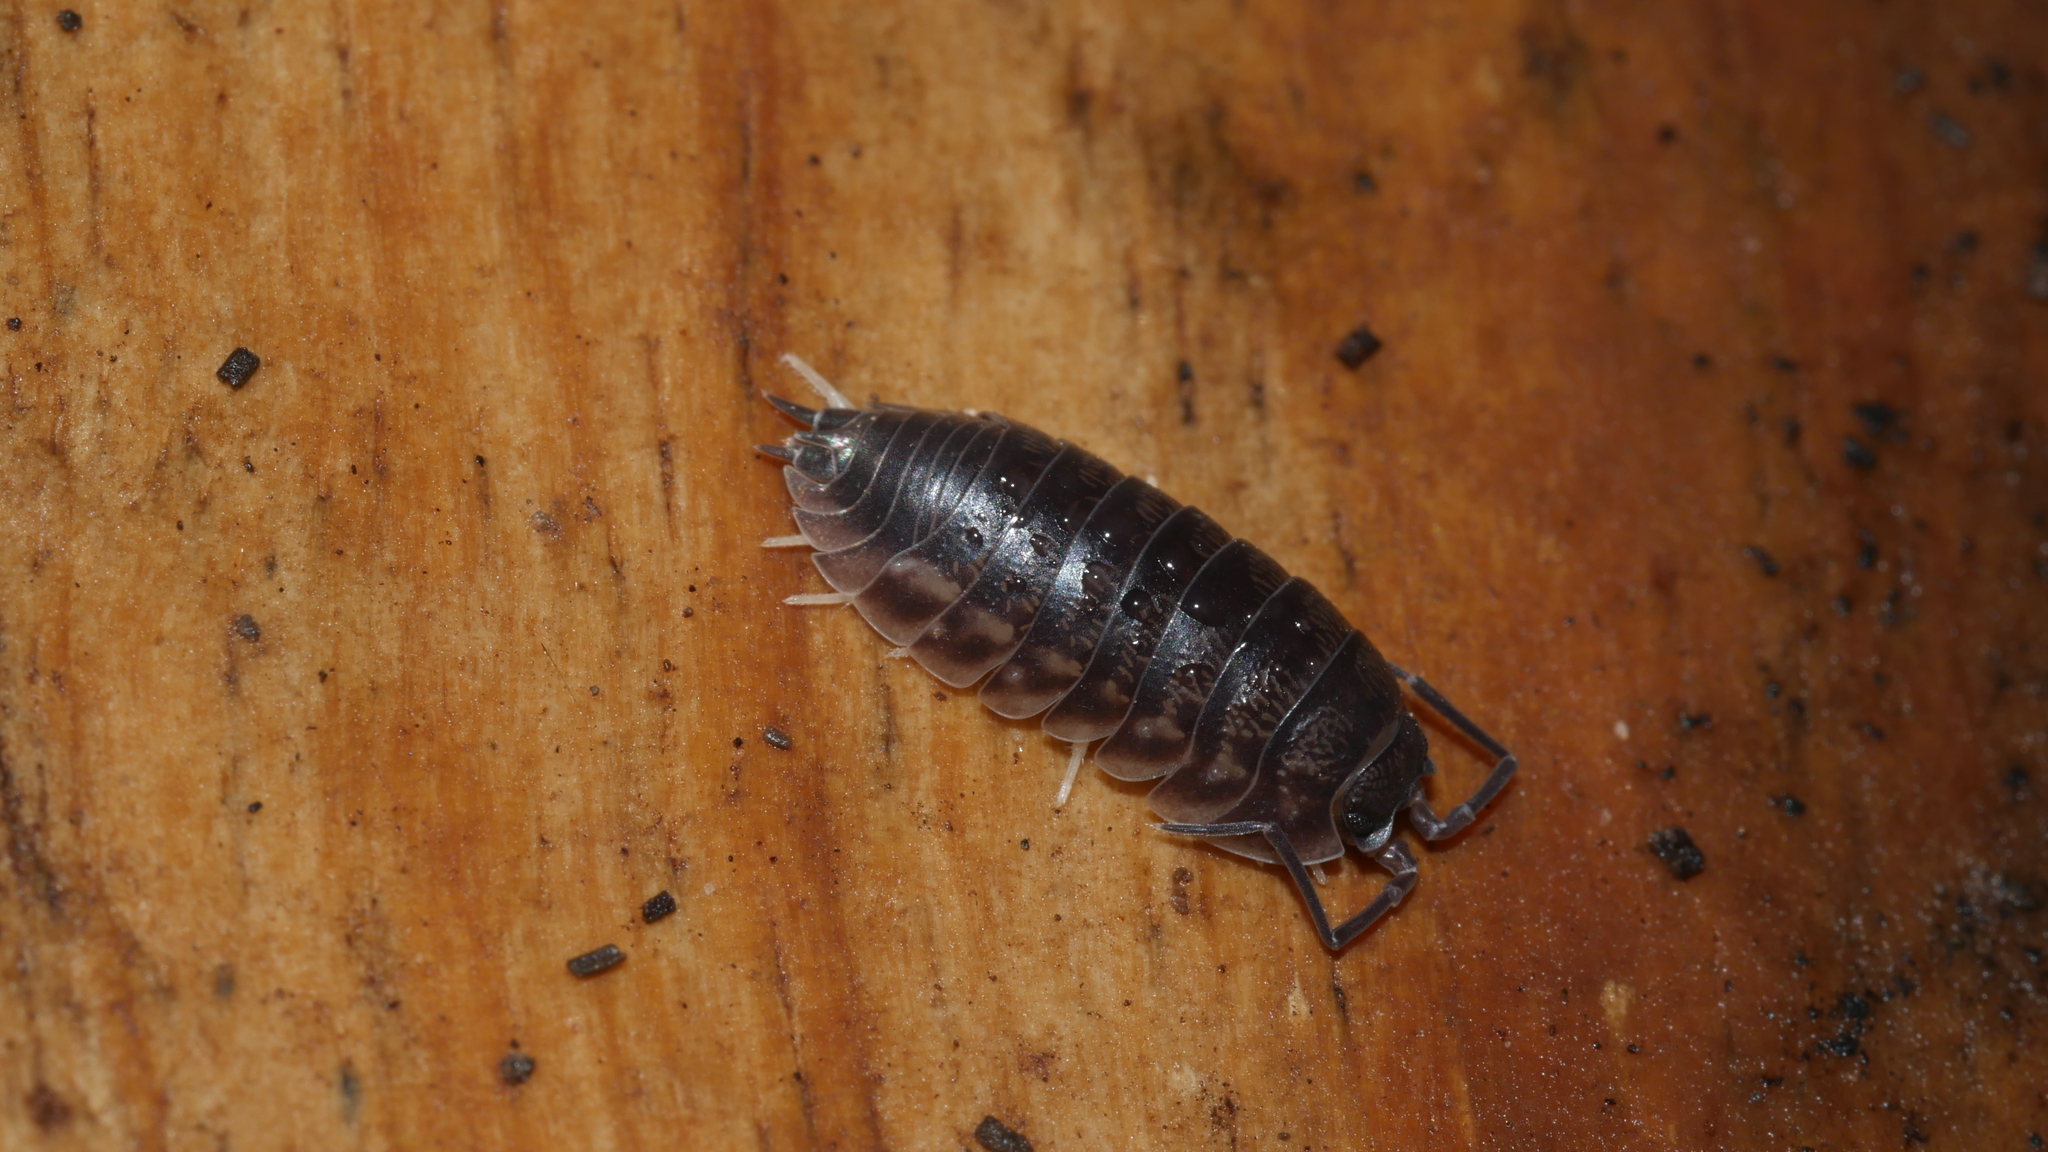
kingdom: Animalia
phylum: Arthropoda
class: Malacostraca
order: Isopoda
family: Cylisticidae
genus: Cylisticus
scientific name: Cylisticus convexus
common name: Curly woodlouse
